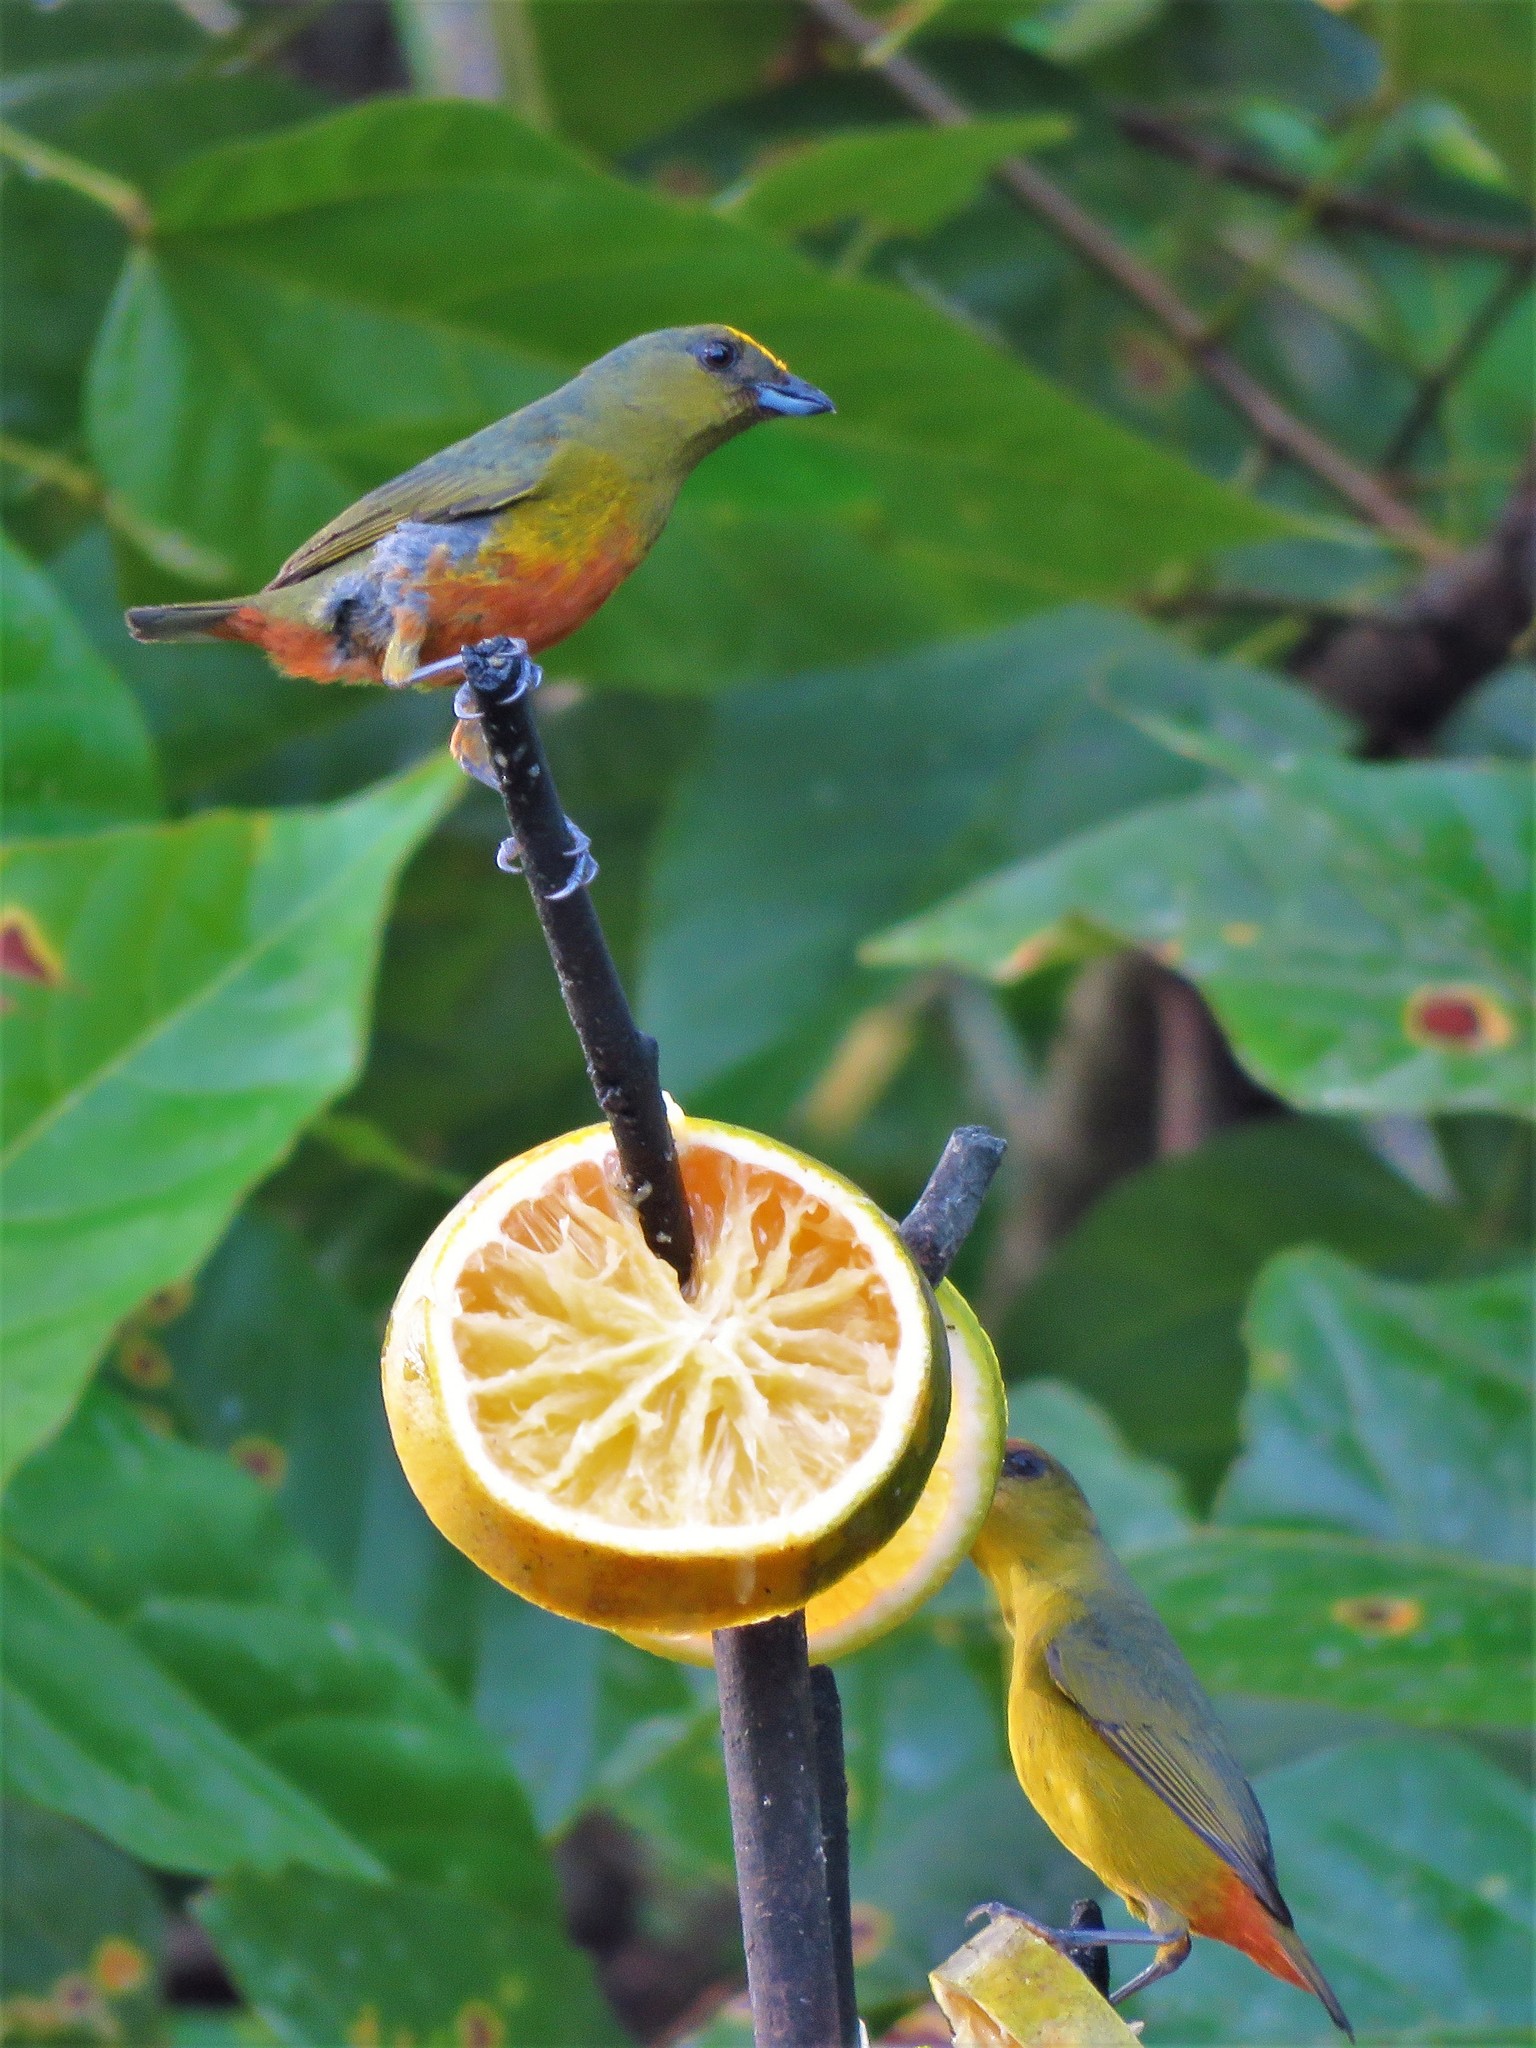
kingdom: Animalia
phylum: Chordata
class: Aves
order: Passeriformes
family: Fringillidae
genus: Euphonia
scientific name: Euphonia gouldi
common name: Olive-backed euphonia
